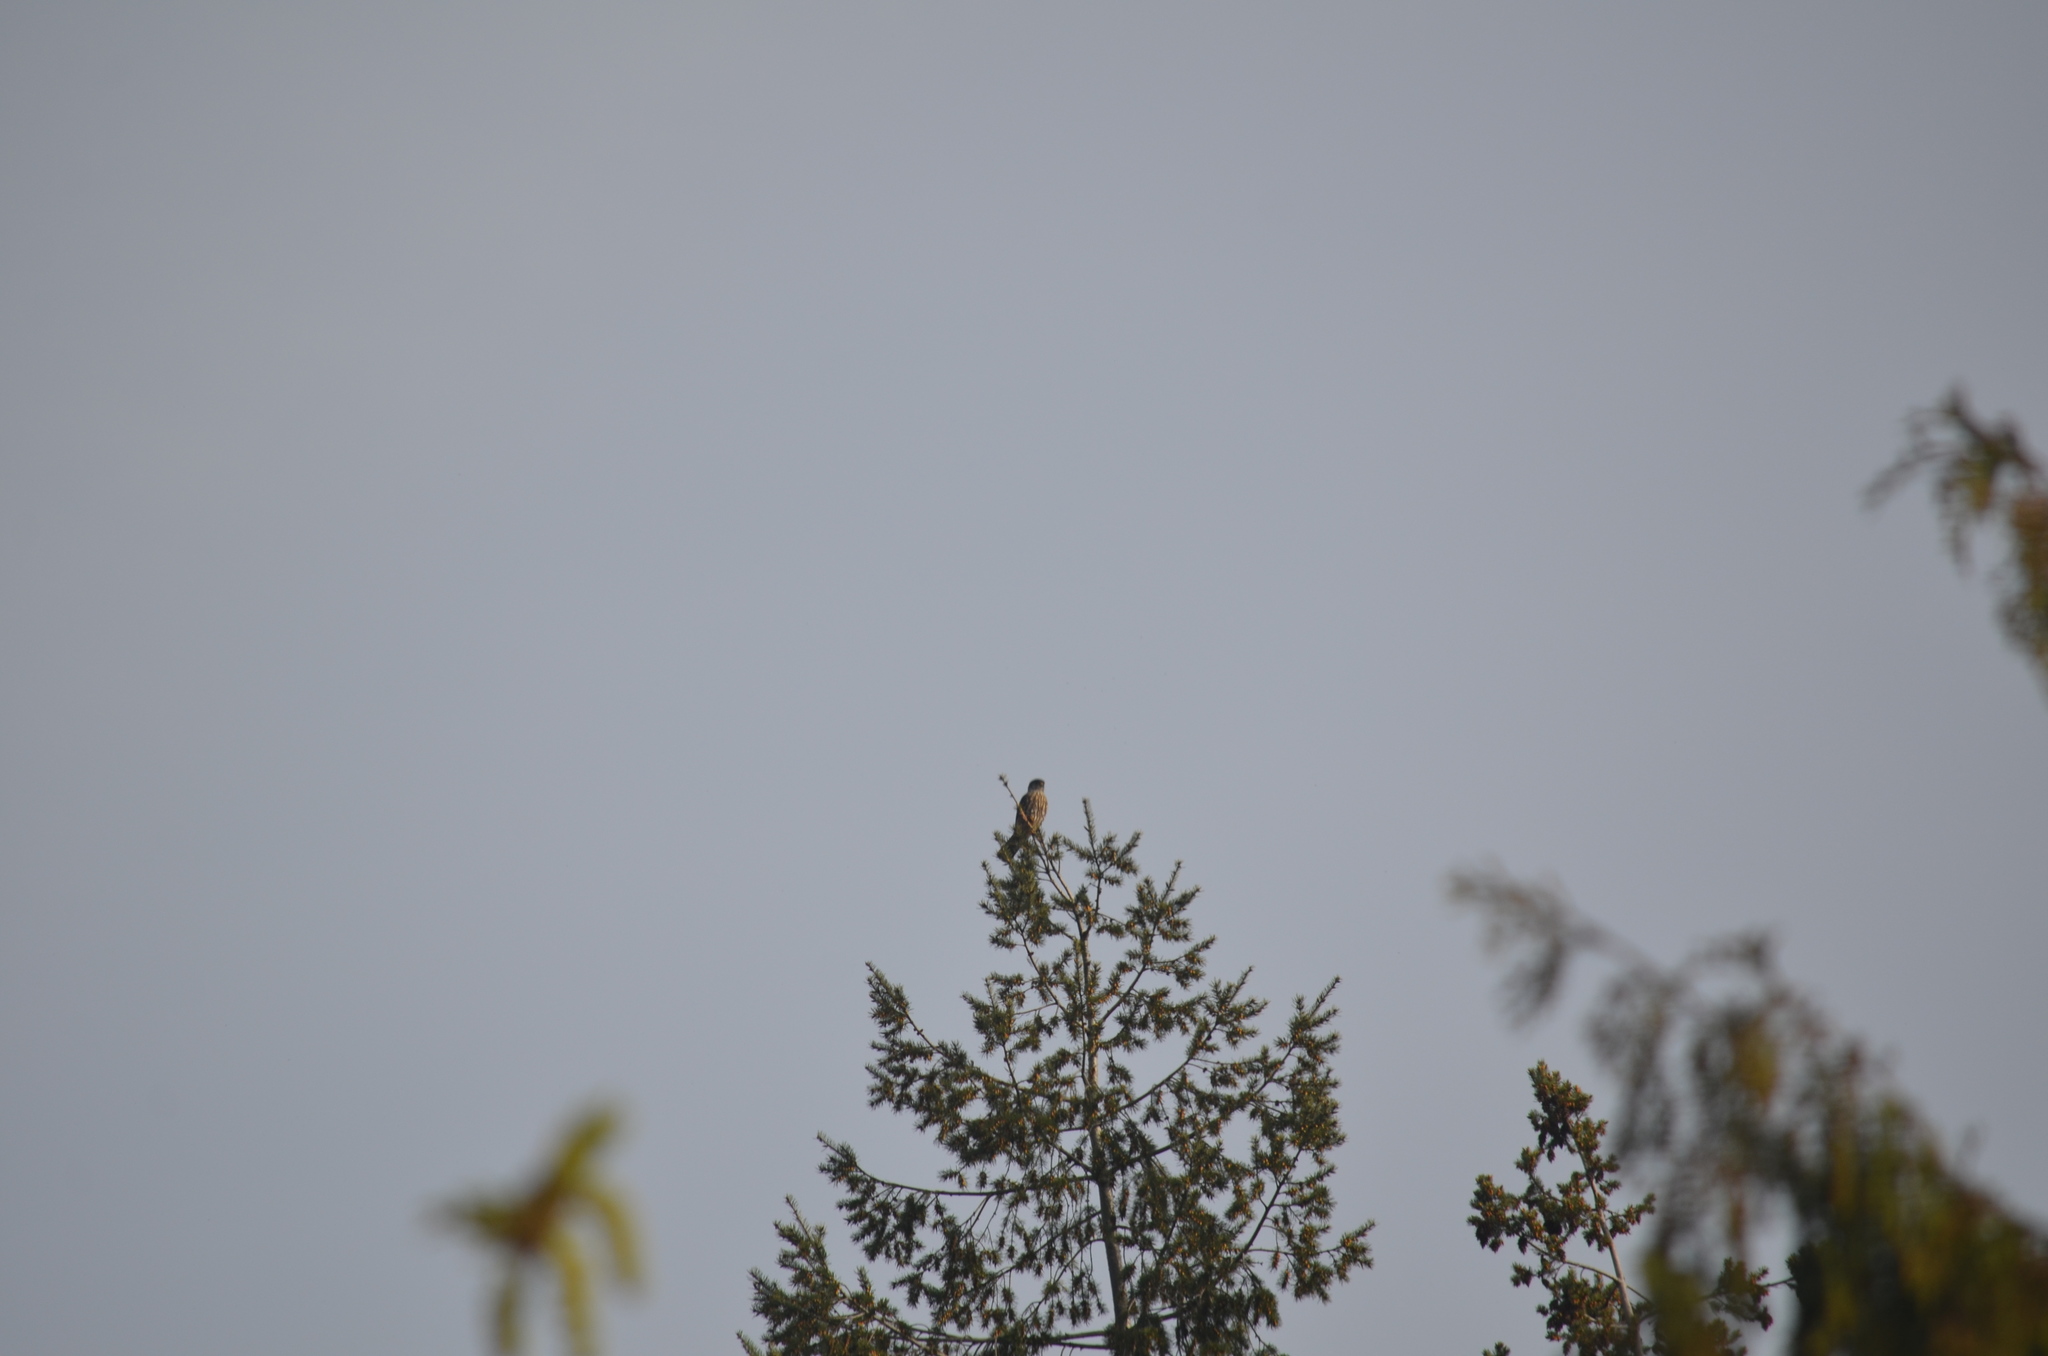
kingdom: Animalia
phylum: Chordata
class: Aves
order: Falconiformes
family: Falconidae
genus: Falco
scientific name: Falco columbarius
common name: Merlin
